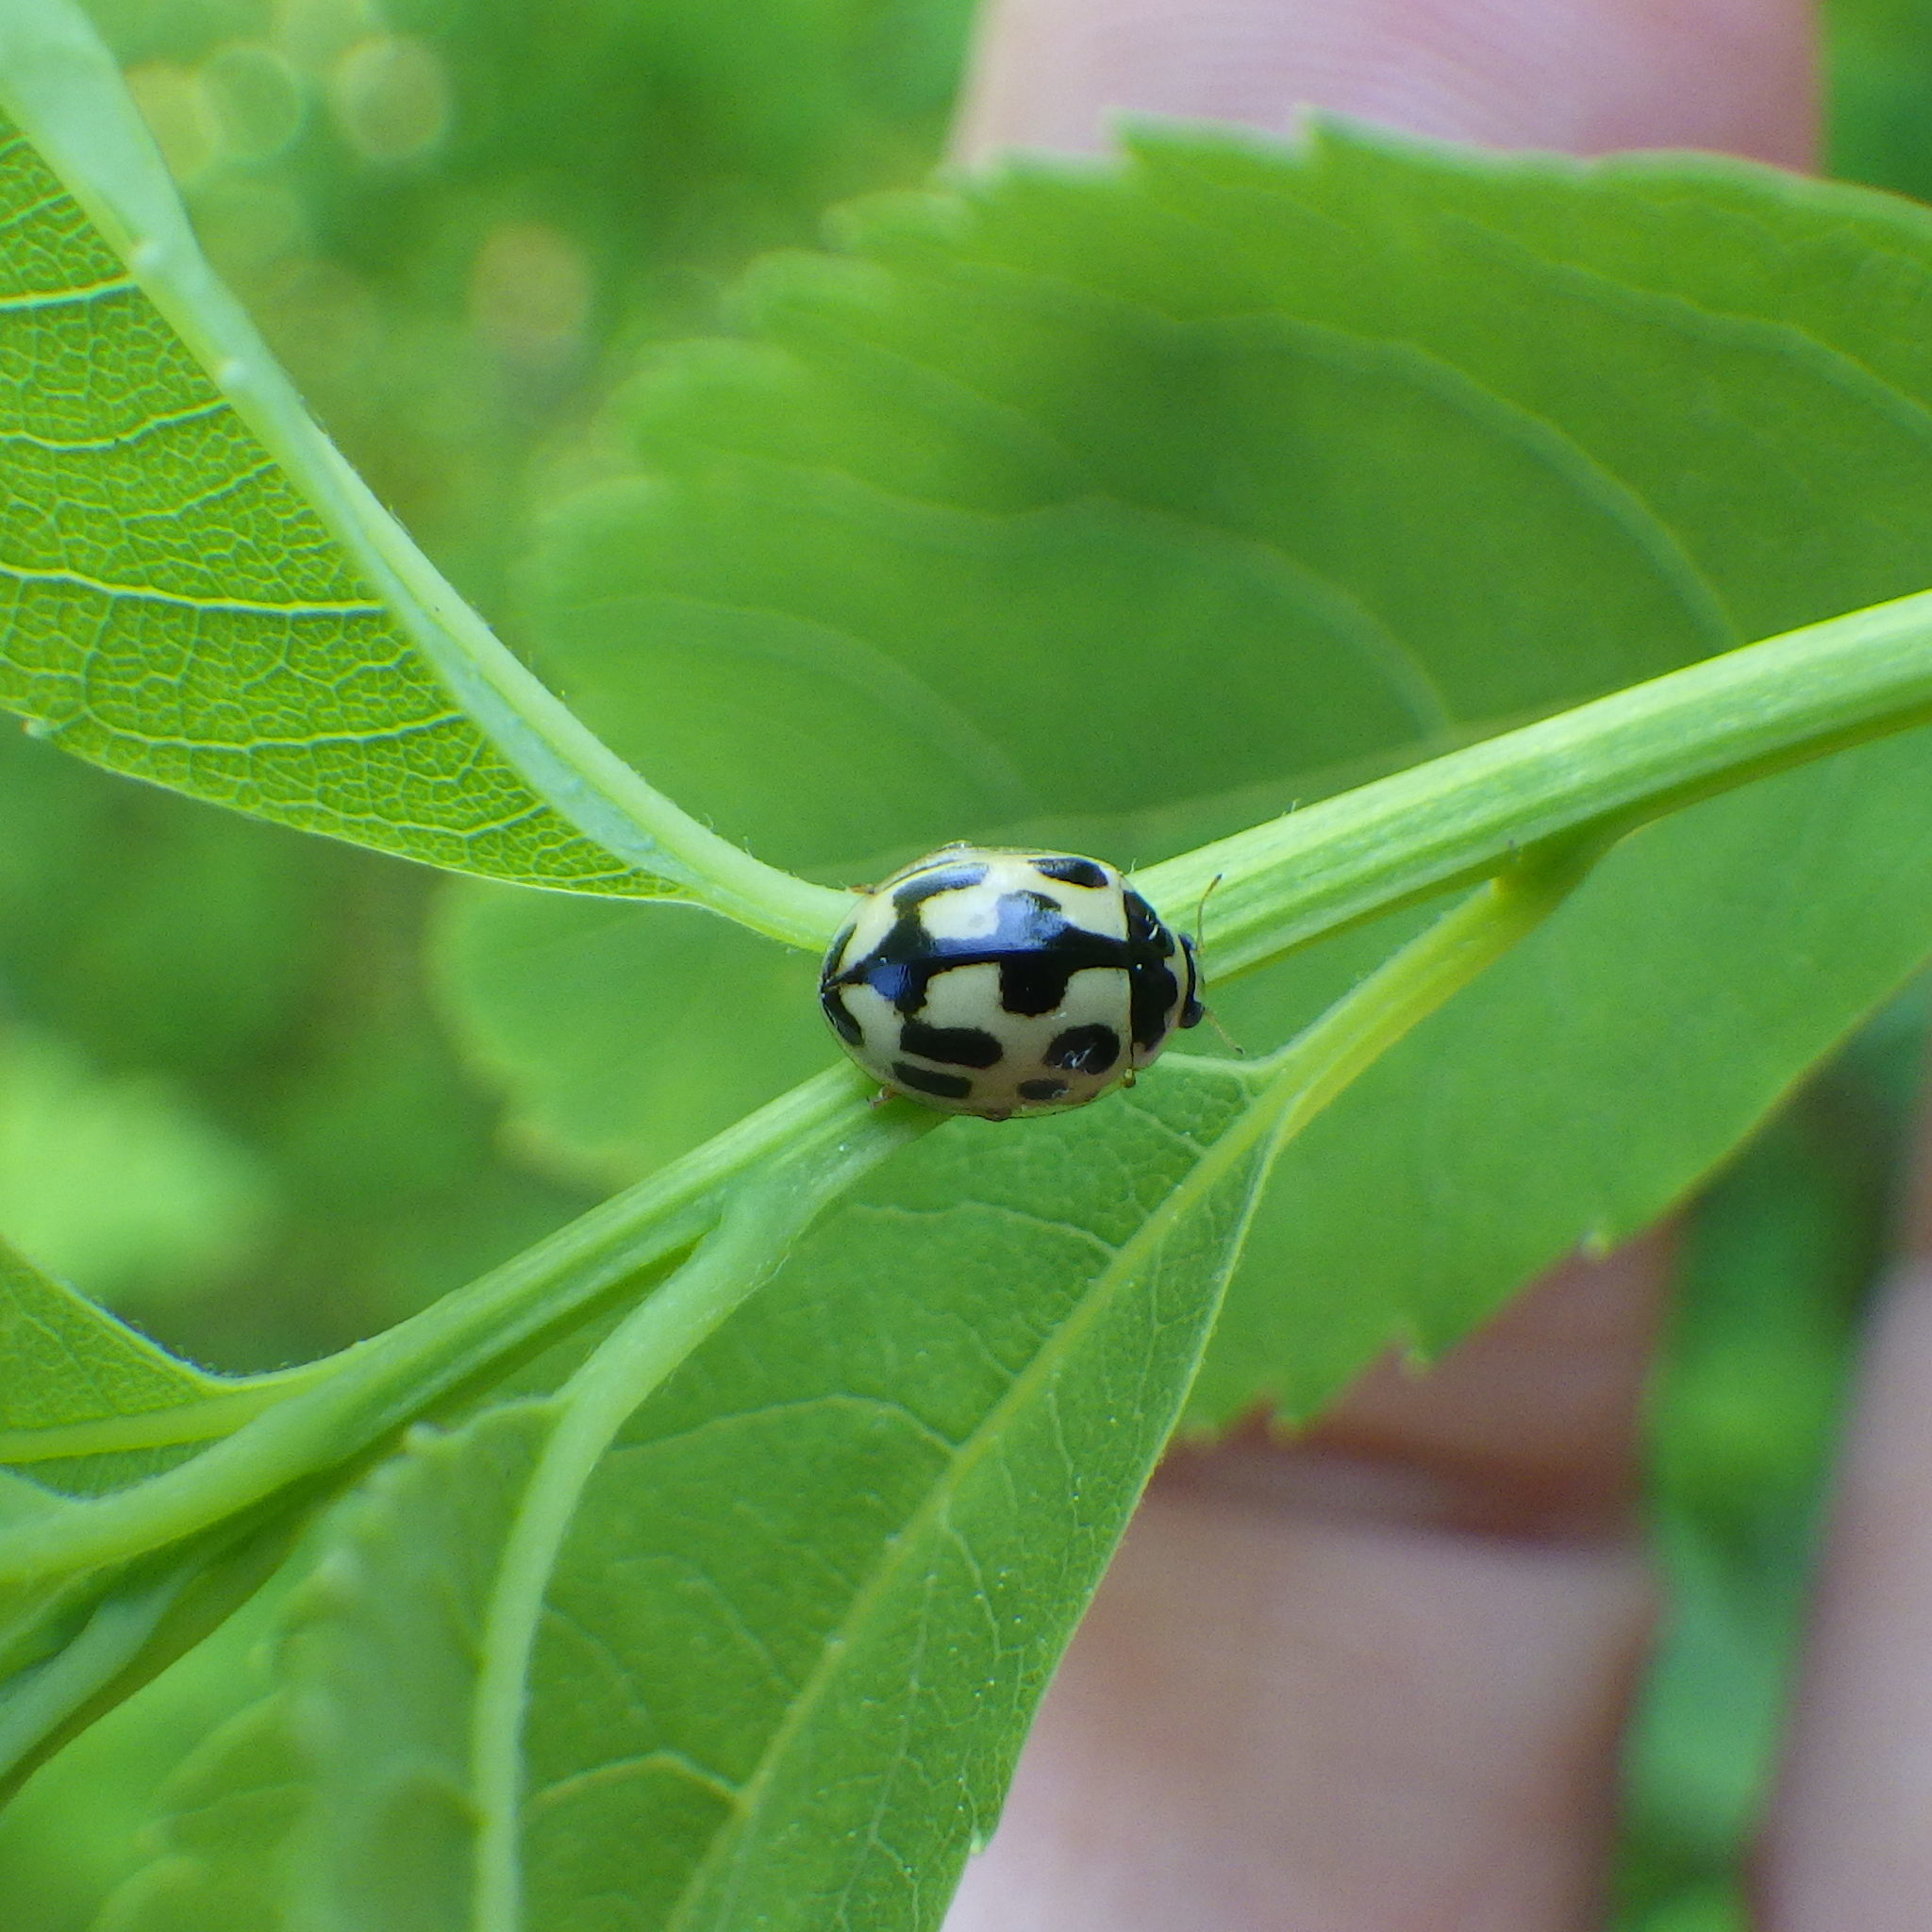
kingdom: Animalia
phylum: Arthropoda
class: Insecta
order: Coleoptera
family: Coccinellidae
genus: Propylaea
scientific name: Propylaea quatuordecimpunctata
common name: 14-spotted ladybird beetle
